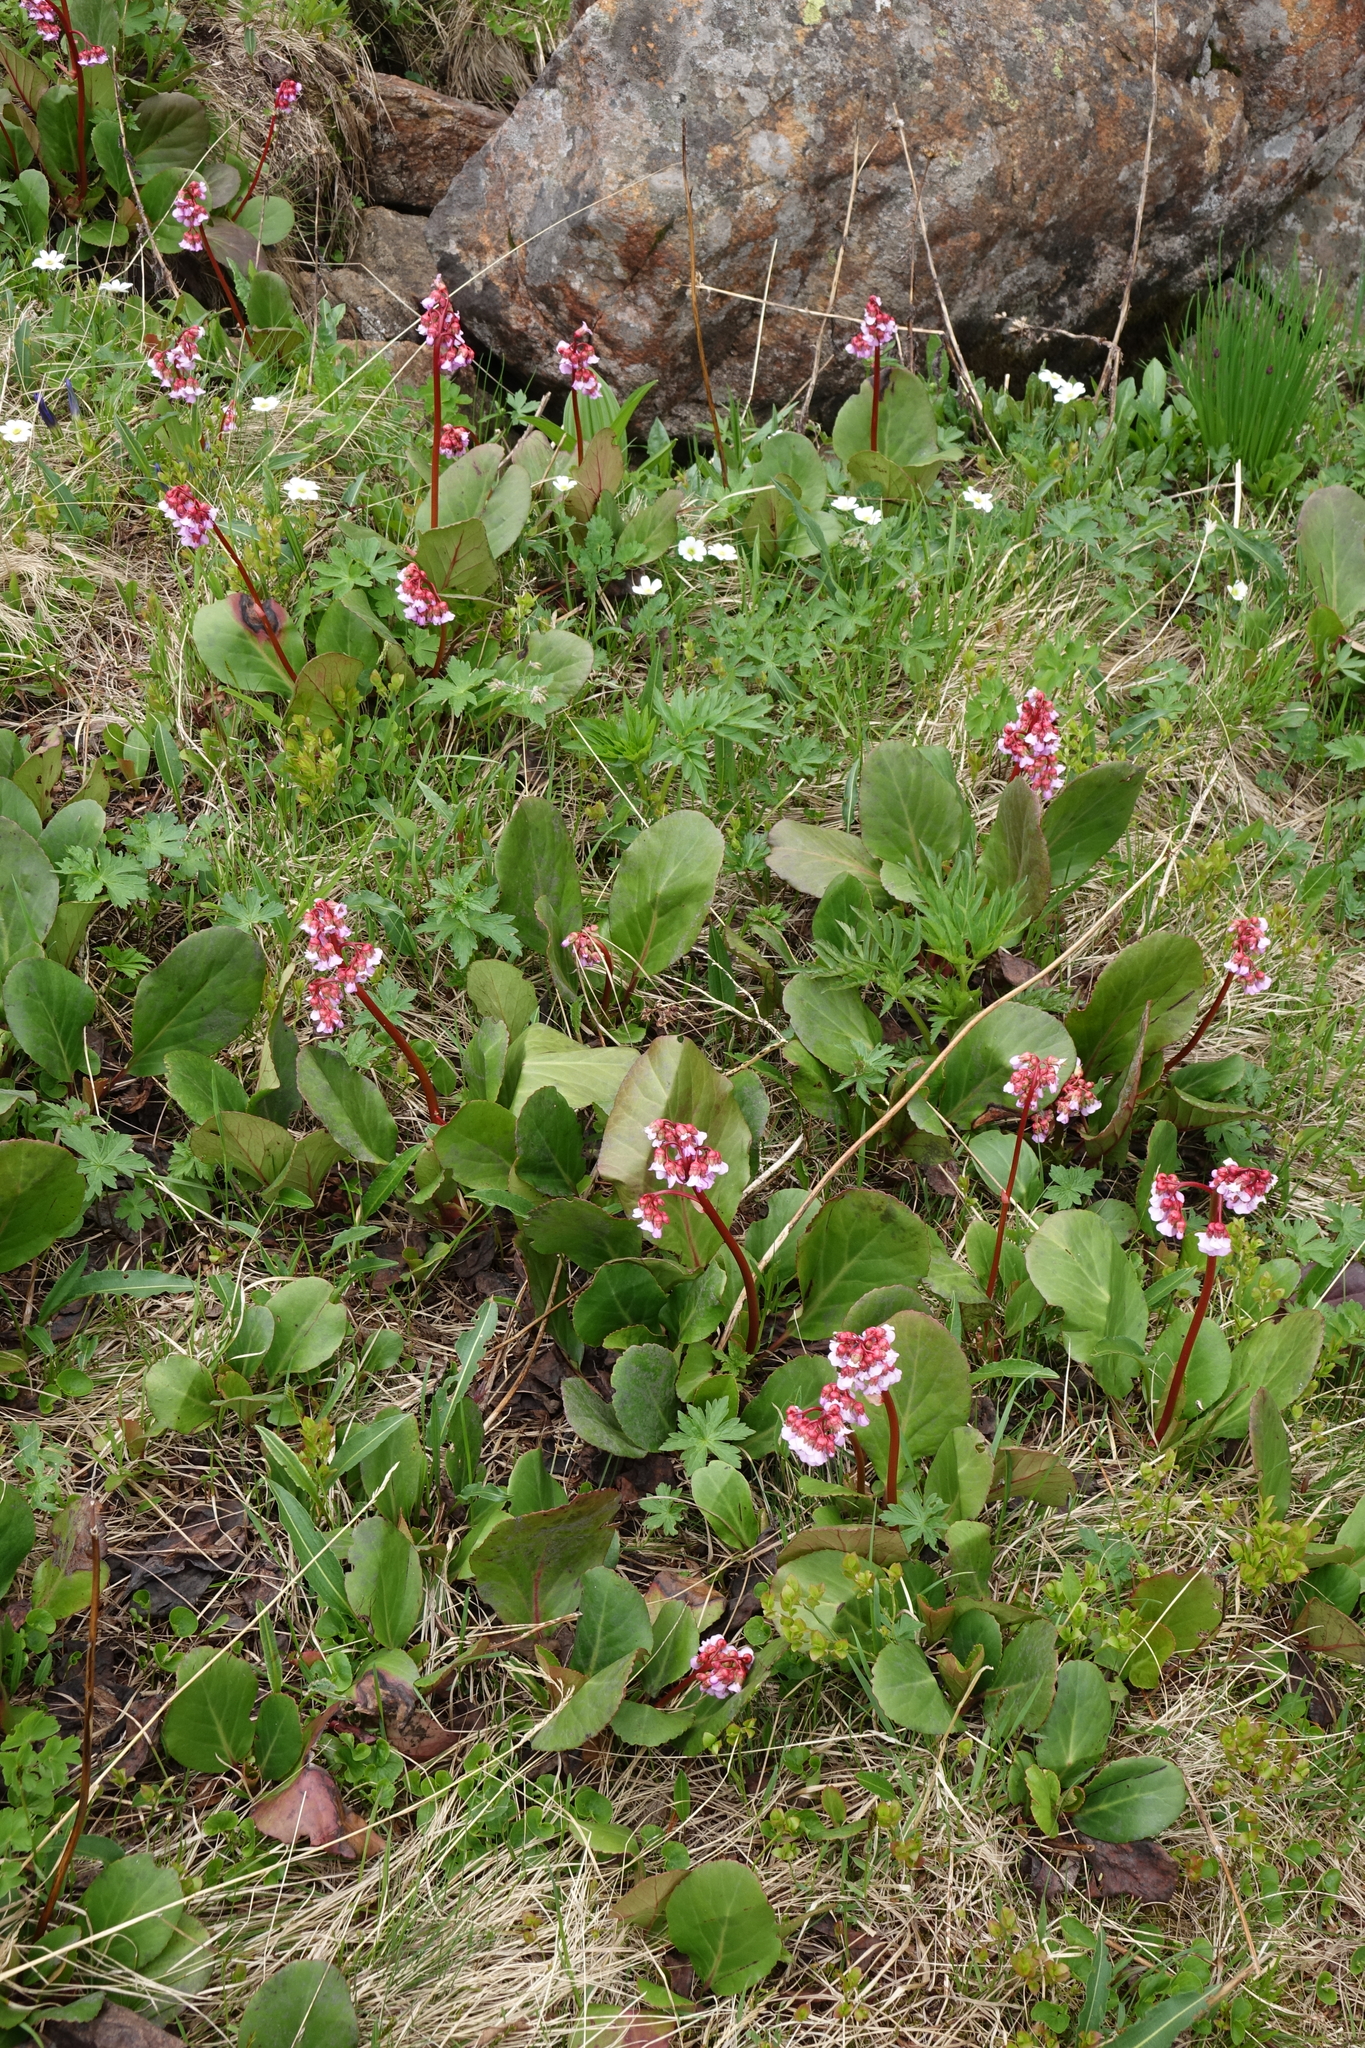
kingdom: Plantae
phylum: Tracheophyta
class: Magnoliopsida
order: Saxifragales
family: Saxifragaceae
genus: Bergenia
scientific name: Bergenia crassifolia
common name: Elephant-ears
